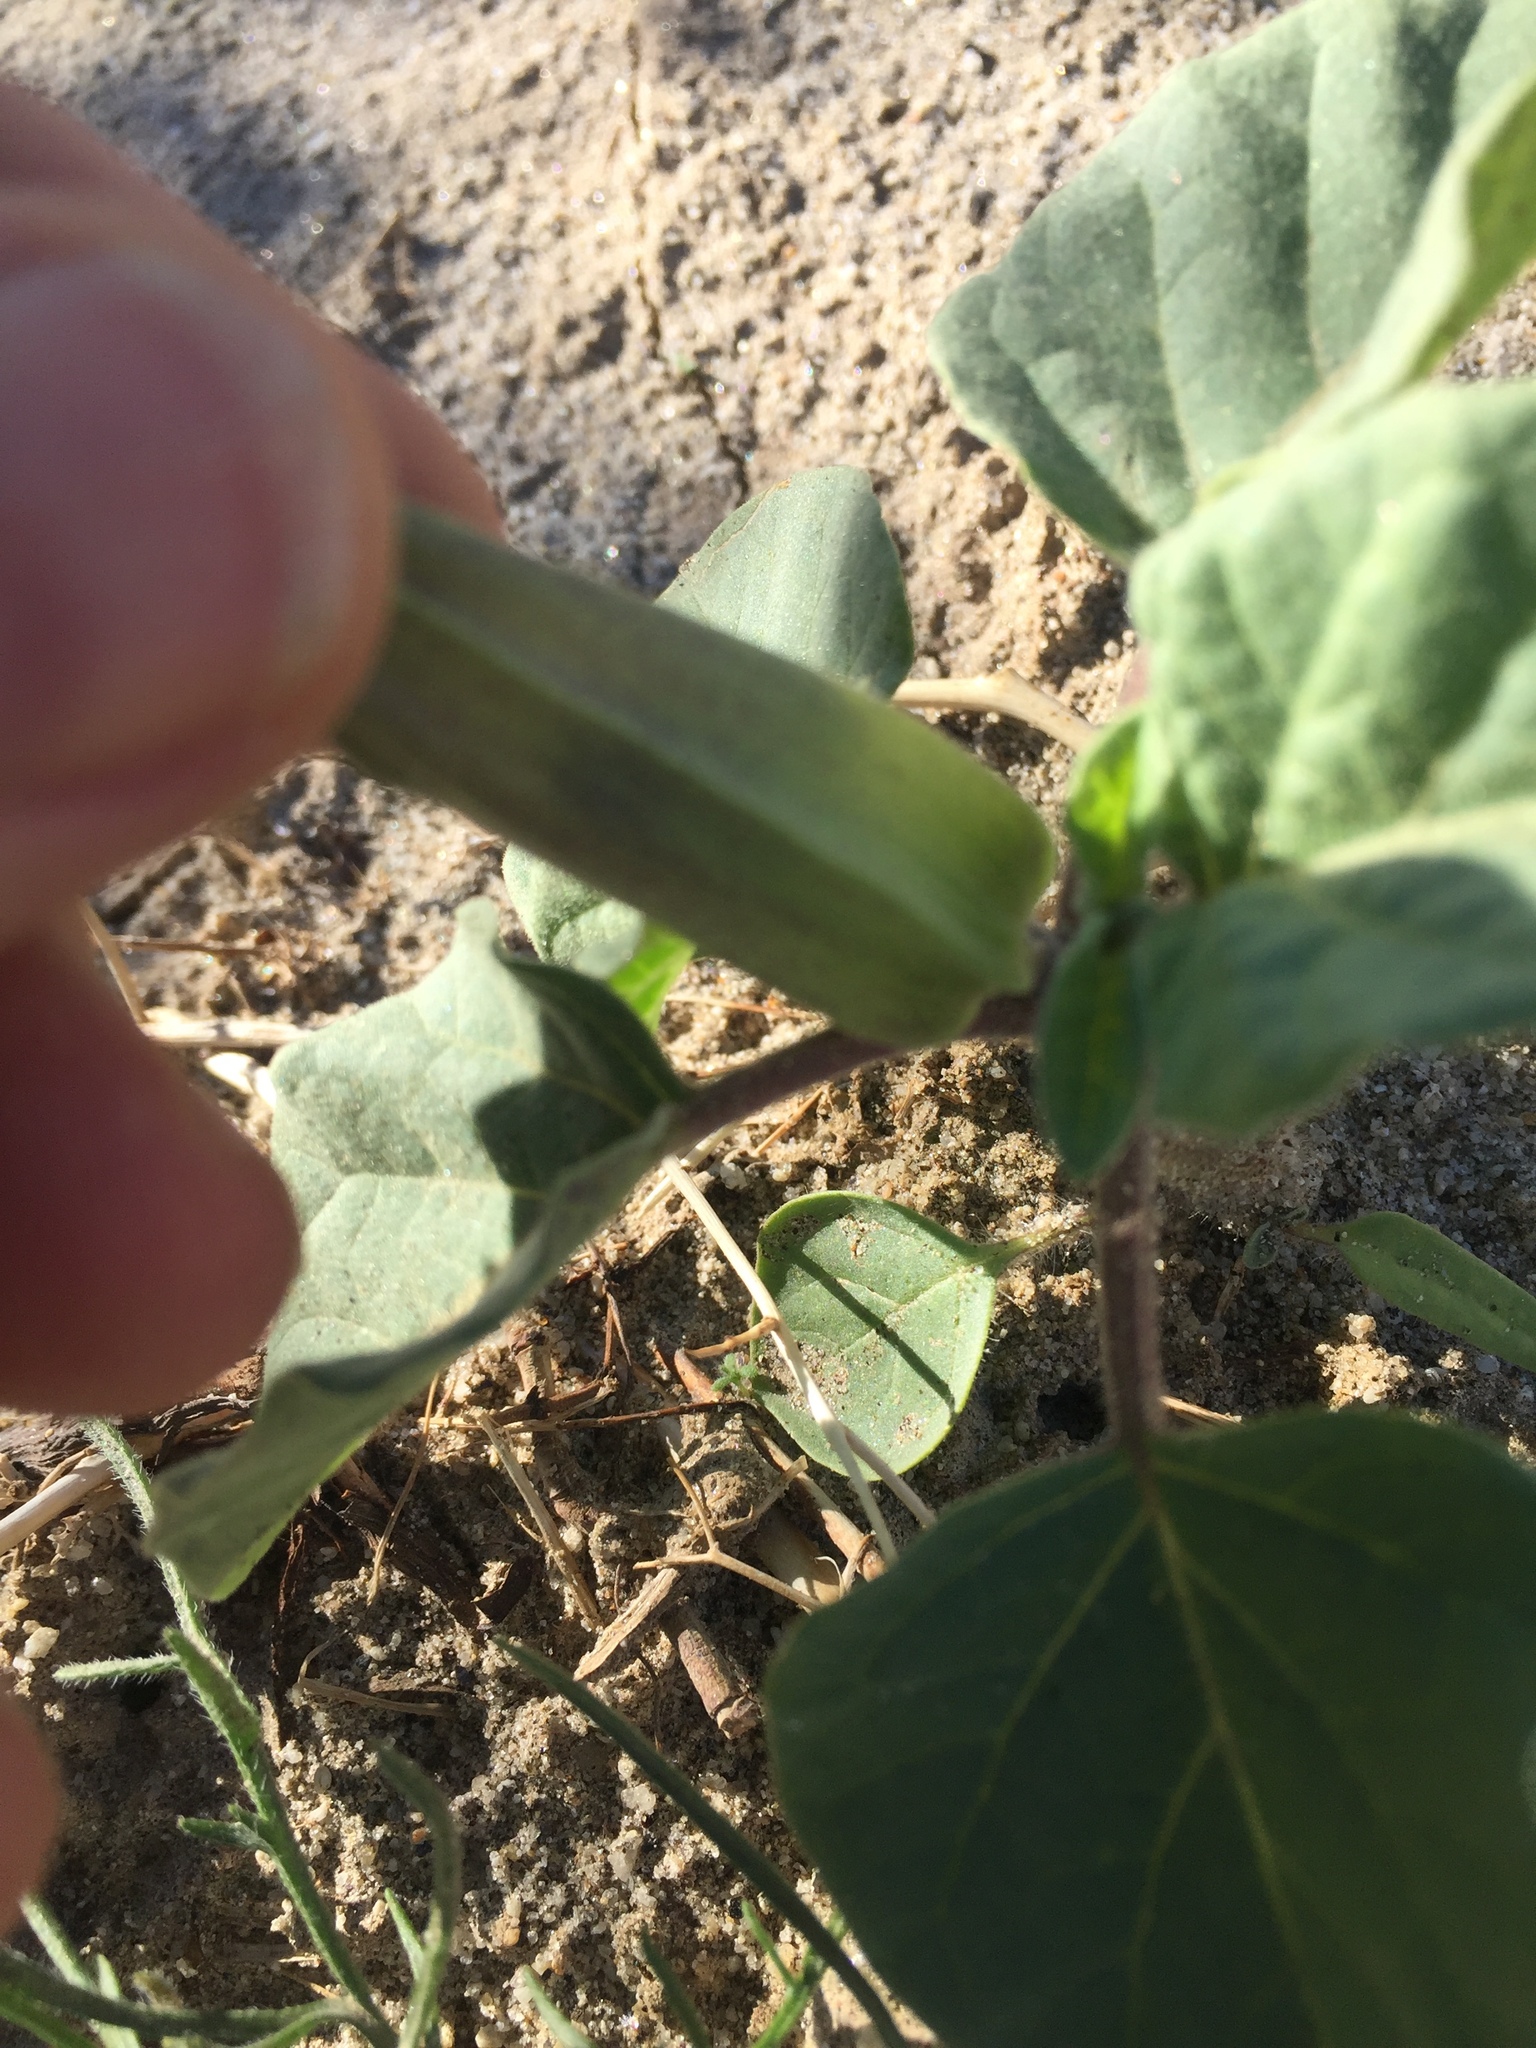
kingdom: Plantae
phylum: Tracheophyta
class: Magnoliopsida
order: Solanales
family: Solanaceae
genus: Datura
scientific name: Datura discolor
